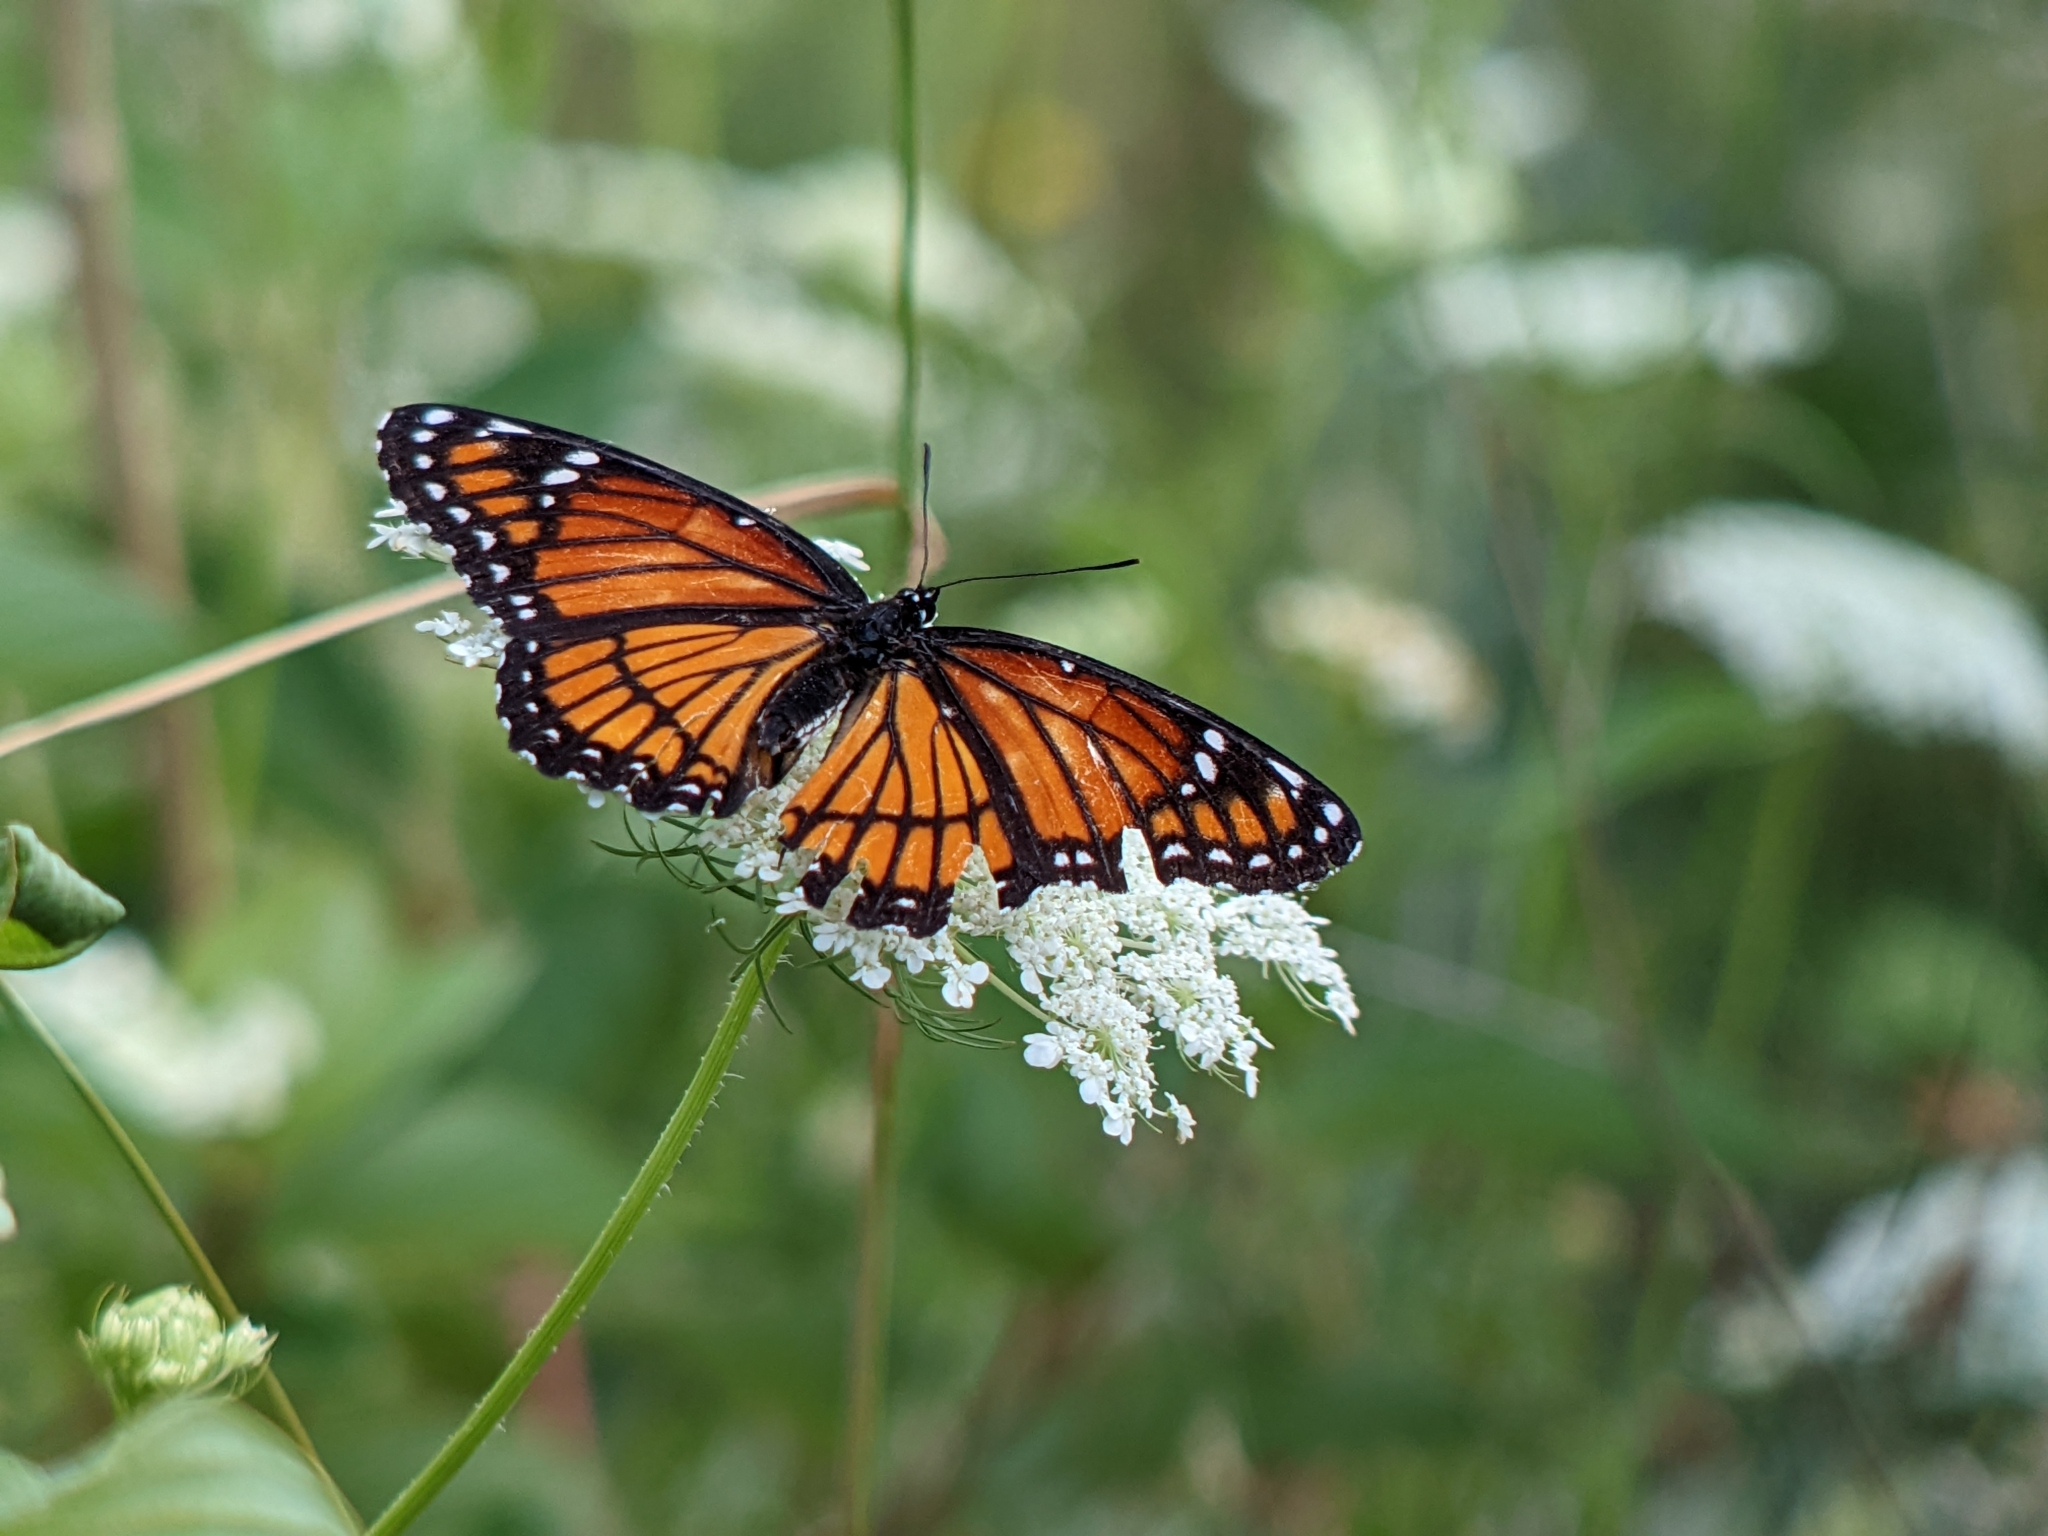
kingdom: Animalia
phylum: Arthropoda
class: Insecta
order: Lepidoptera
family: Nymphalidae
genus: Limenitis
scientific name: Limenitis archippus
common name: Viceroy
